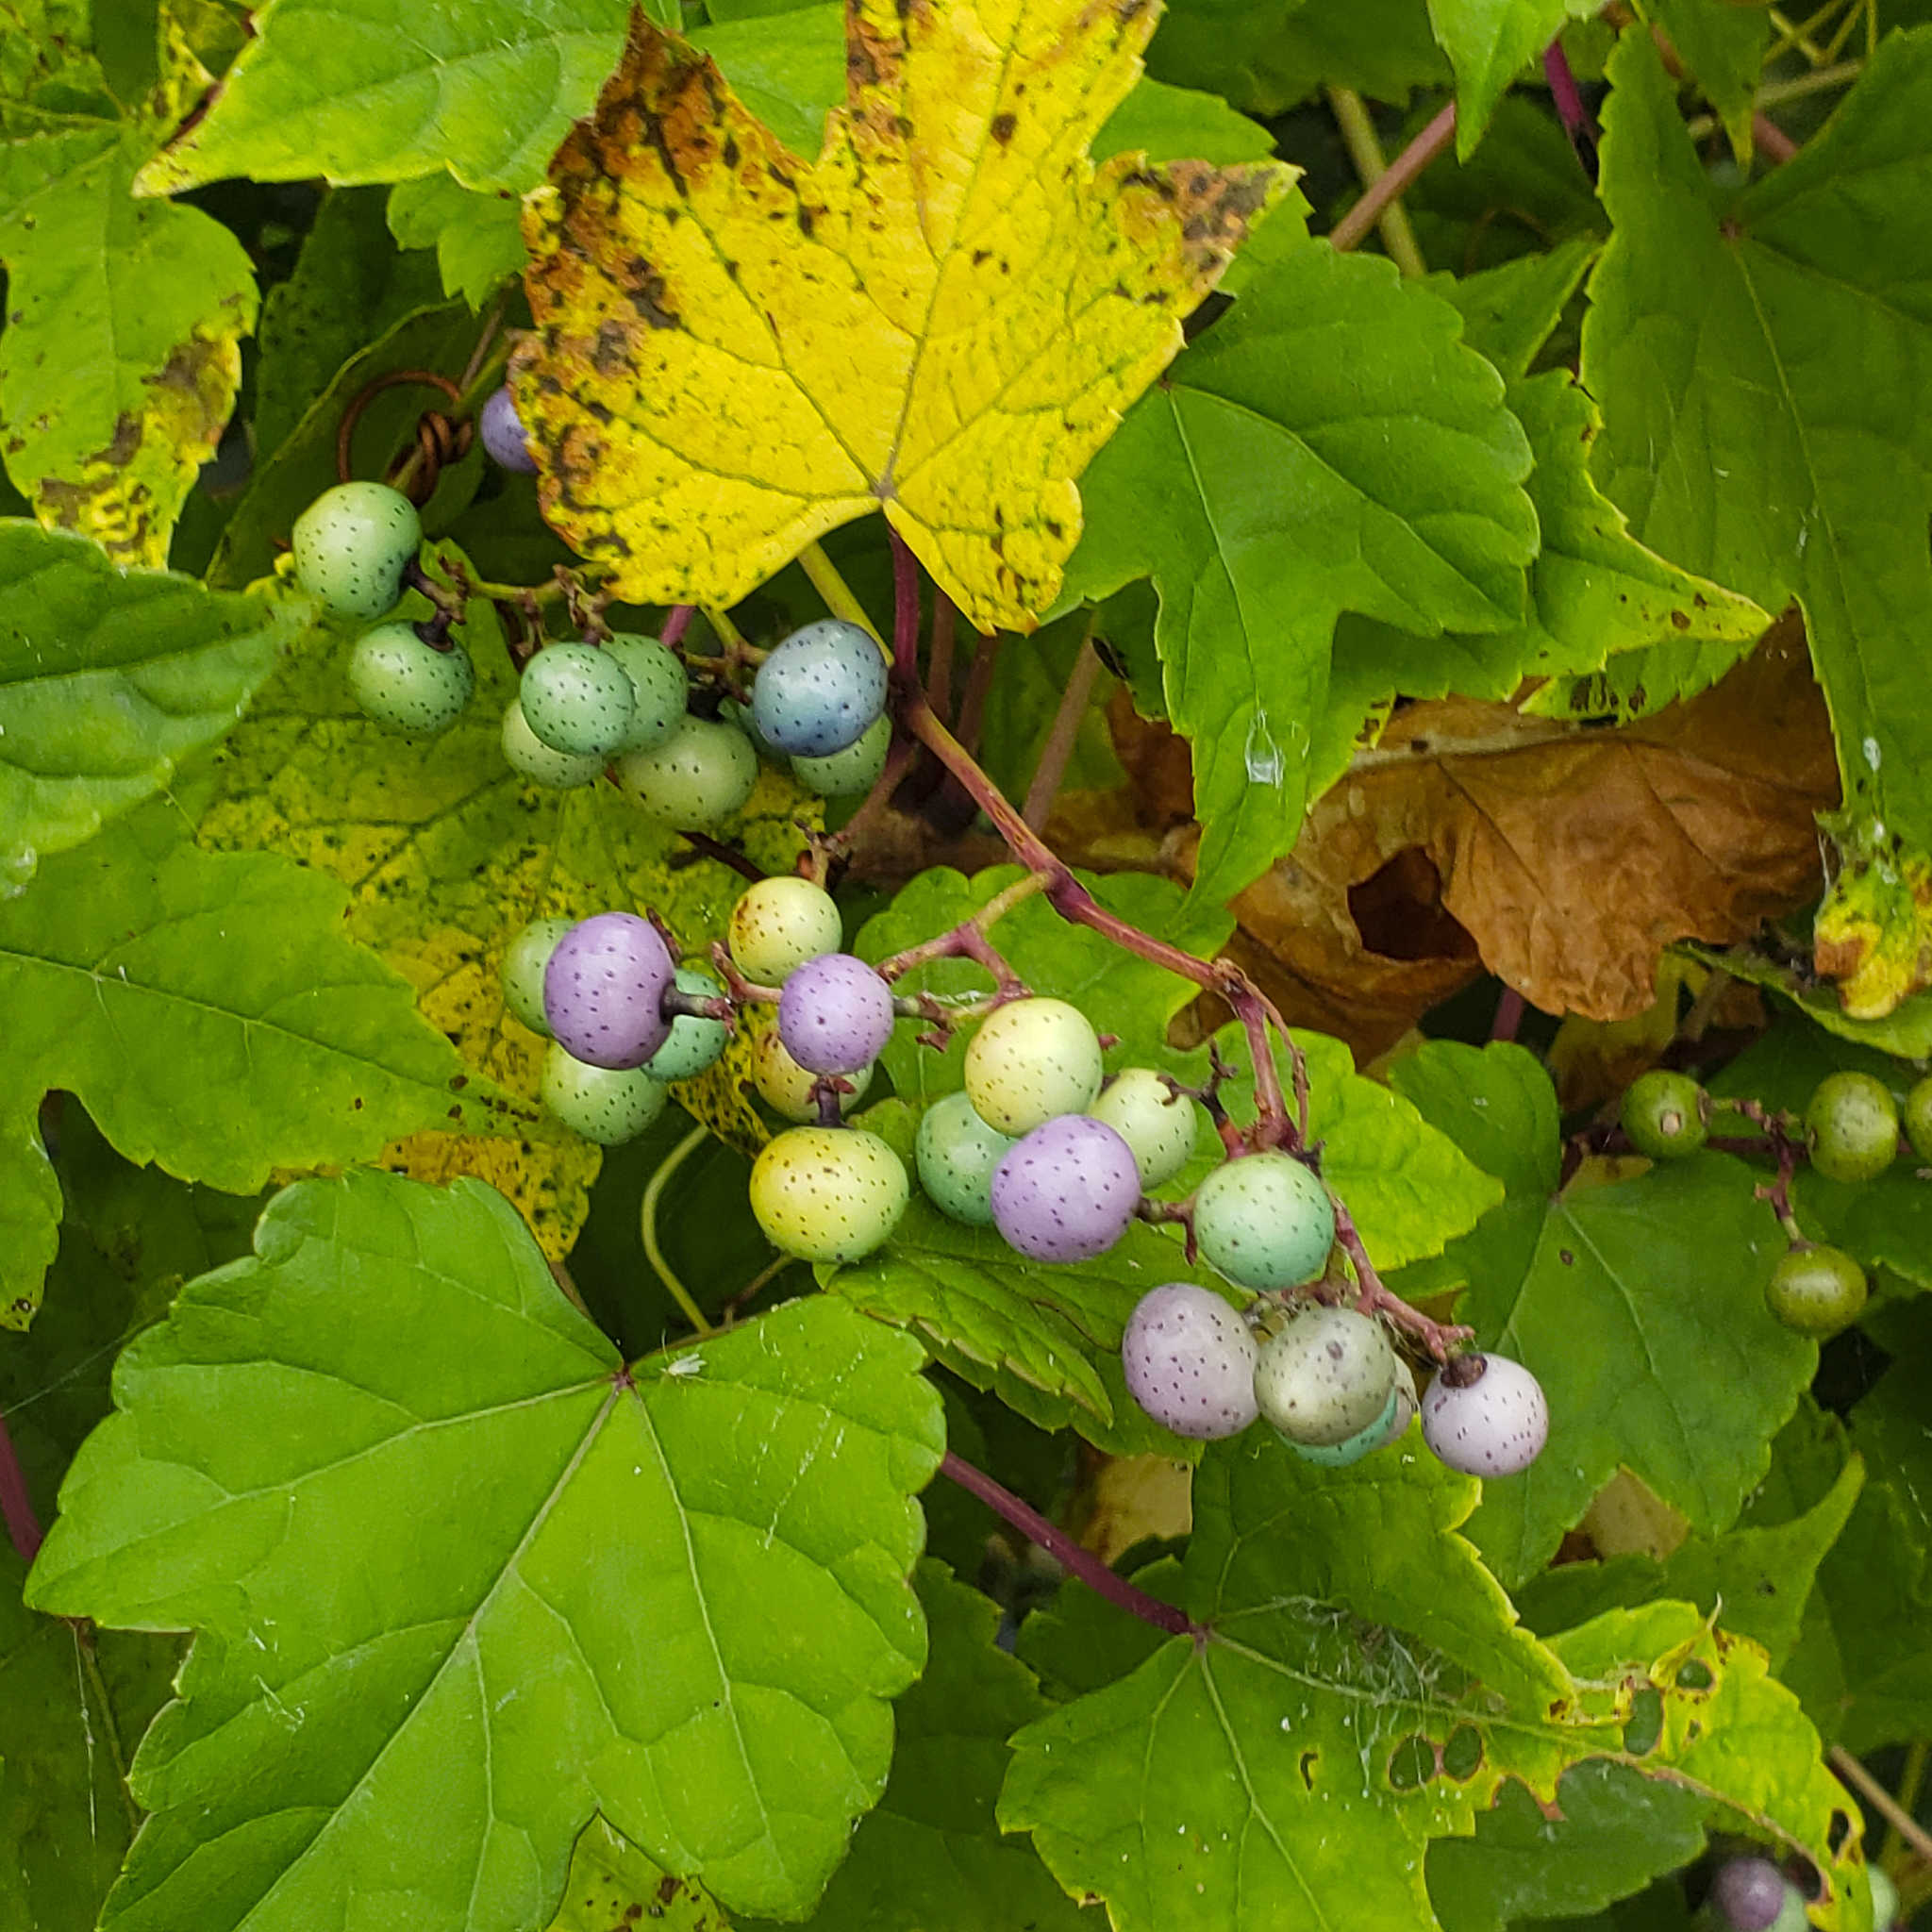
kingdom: Plantae
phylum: Tracheophyta
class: Magnoliopsida
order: Vitales
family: Vitaceae
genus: Ampelopsis
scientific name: Ampelopsis glandulosa
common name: Amur peppervine
